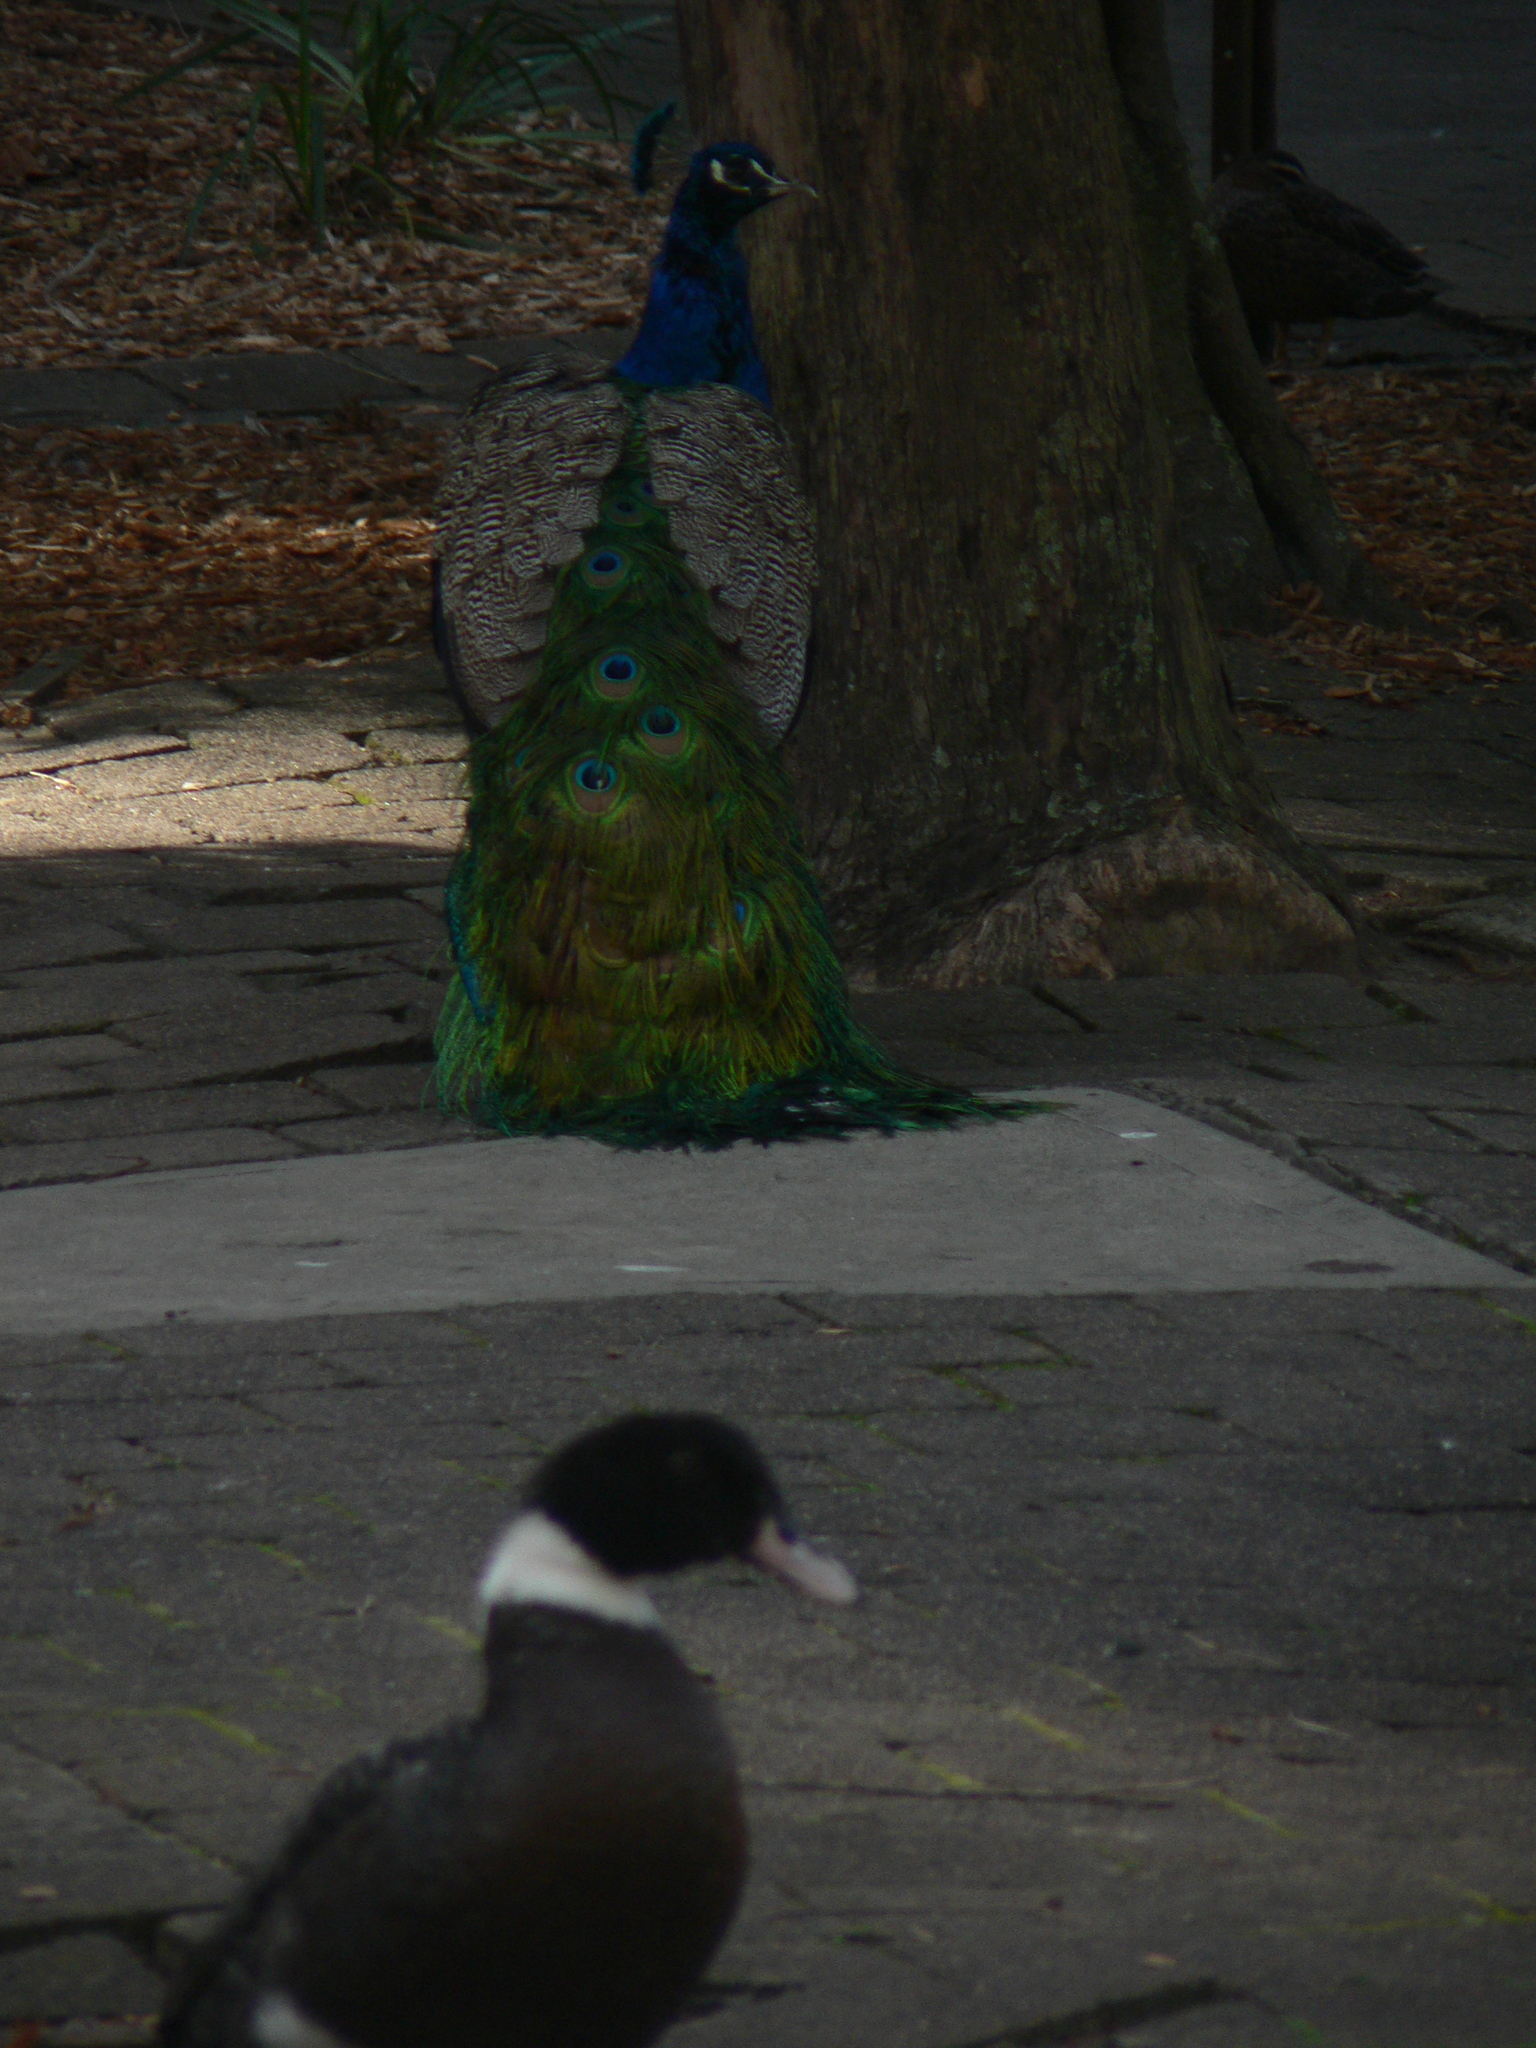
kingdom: Animalia
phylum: Chordata
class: Aves
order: Galliformes
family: Phasianidae
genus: Pavo
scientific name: Pavo cristatus
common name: Indian peafowl
